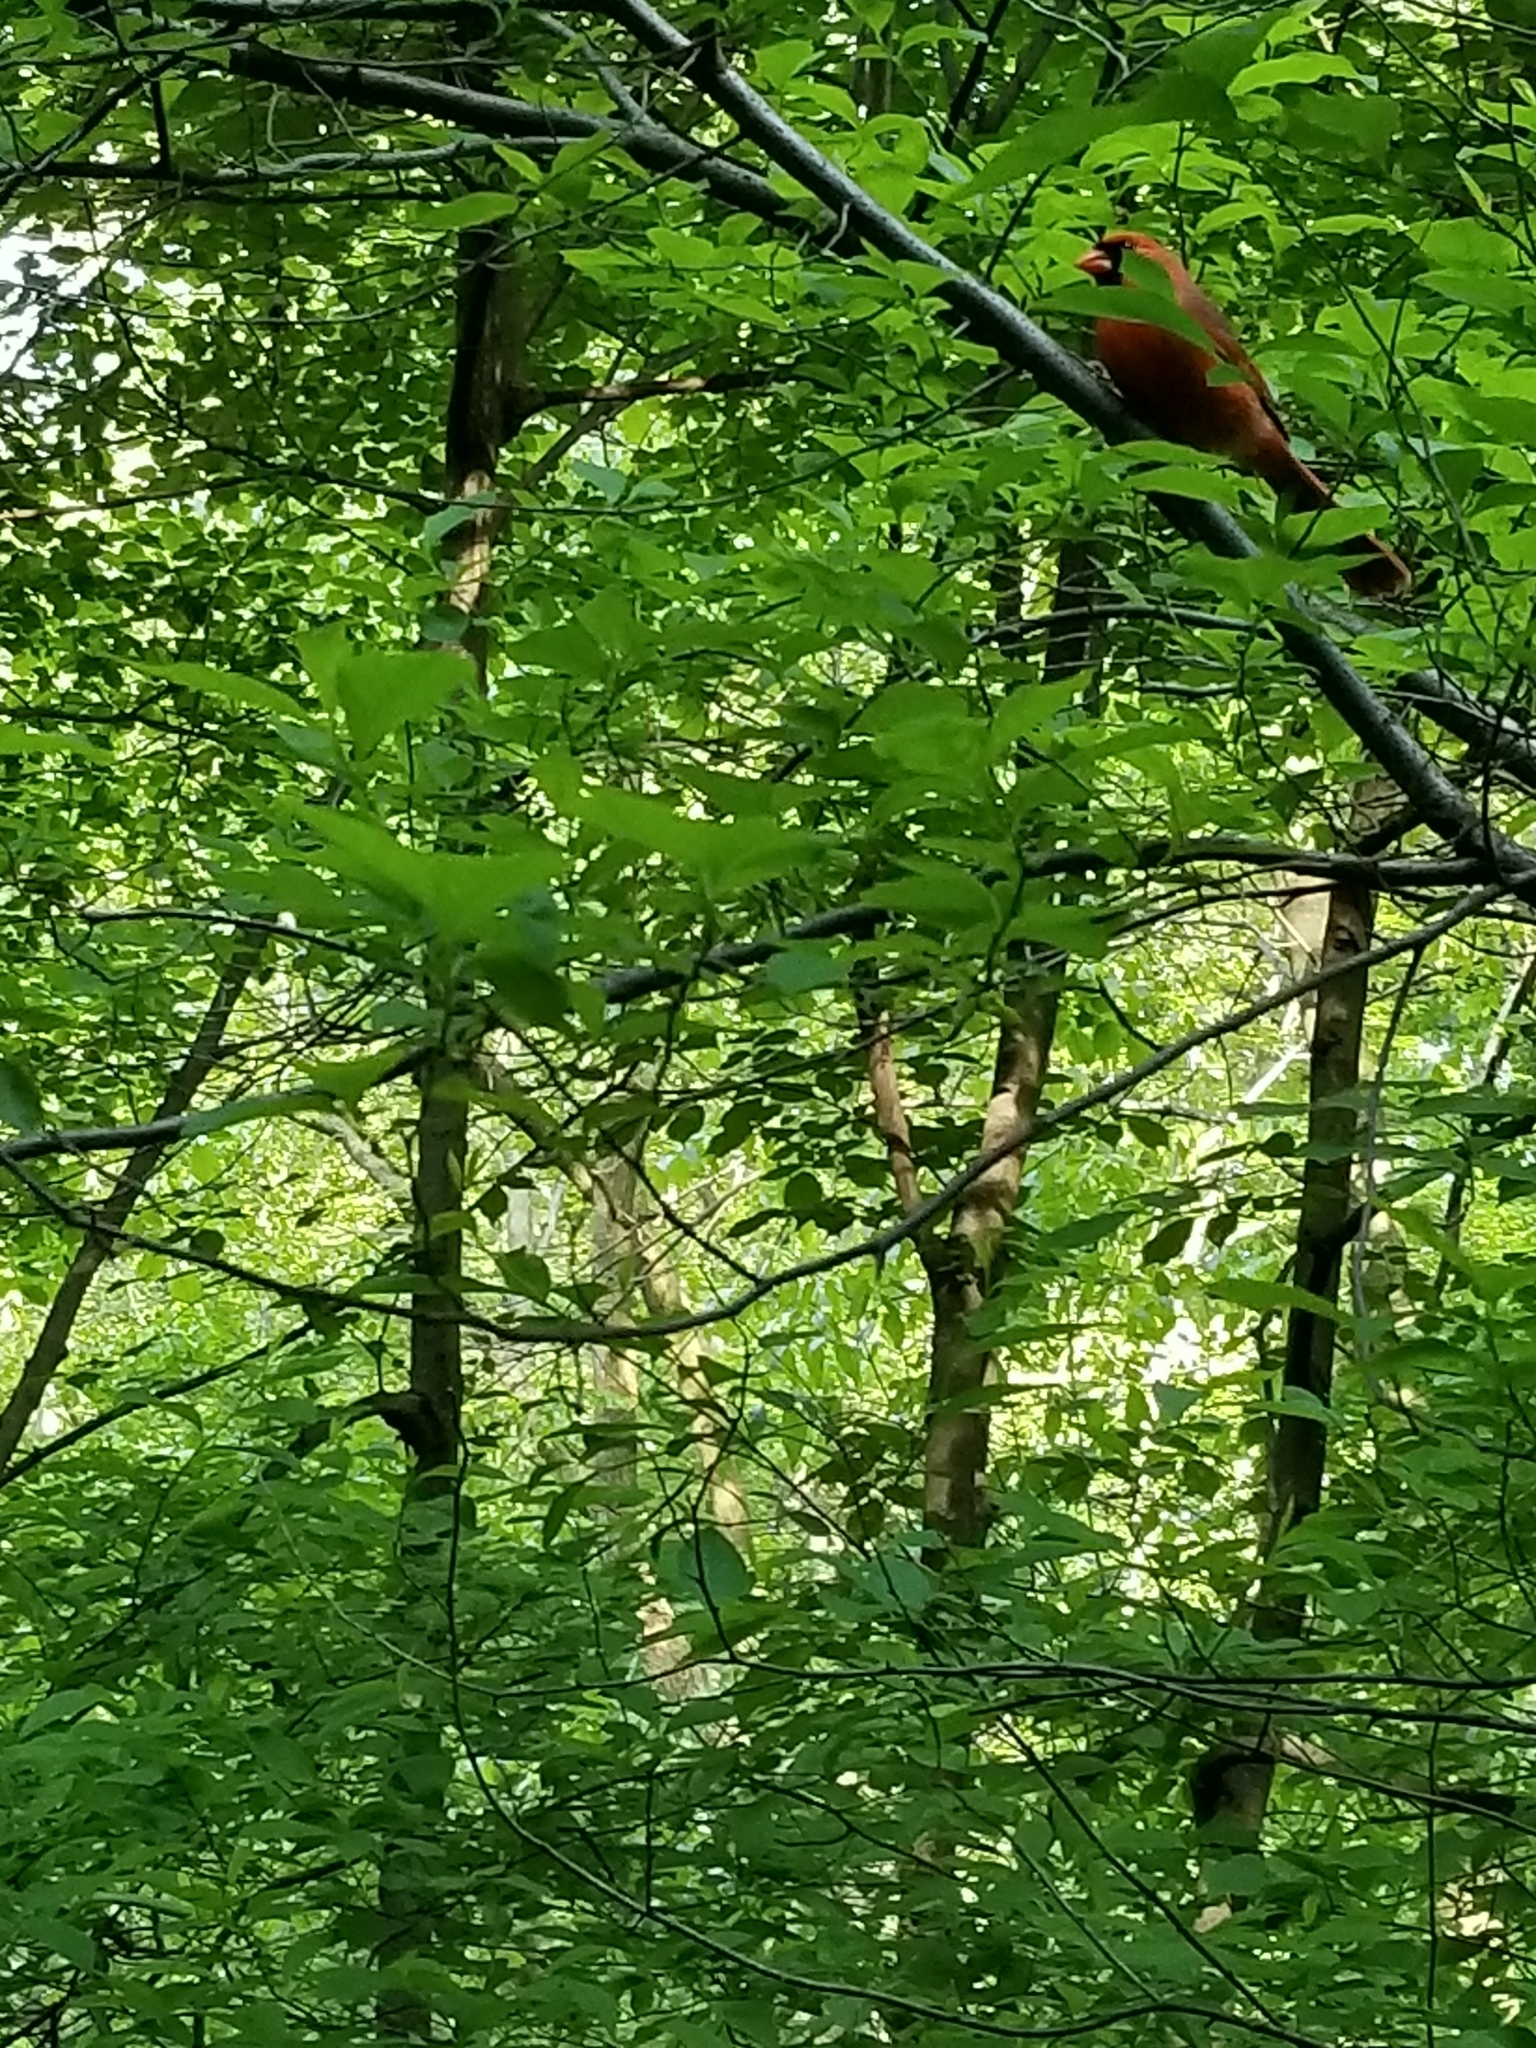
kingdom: Animalia
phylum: Chordata
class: Aves
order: Passeriformes
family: Cardinalidae
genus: Cardinalis
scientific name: Cardinalis cardinalis
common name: Northern cardinal
